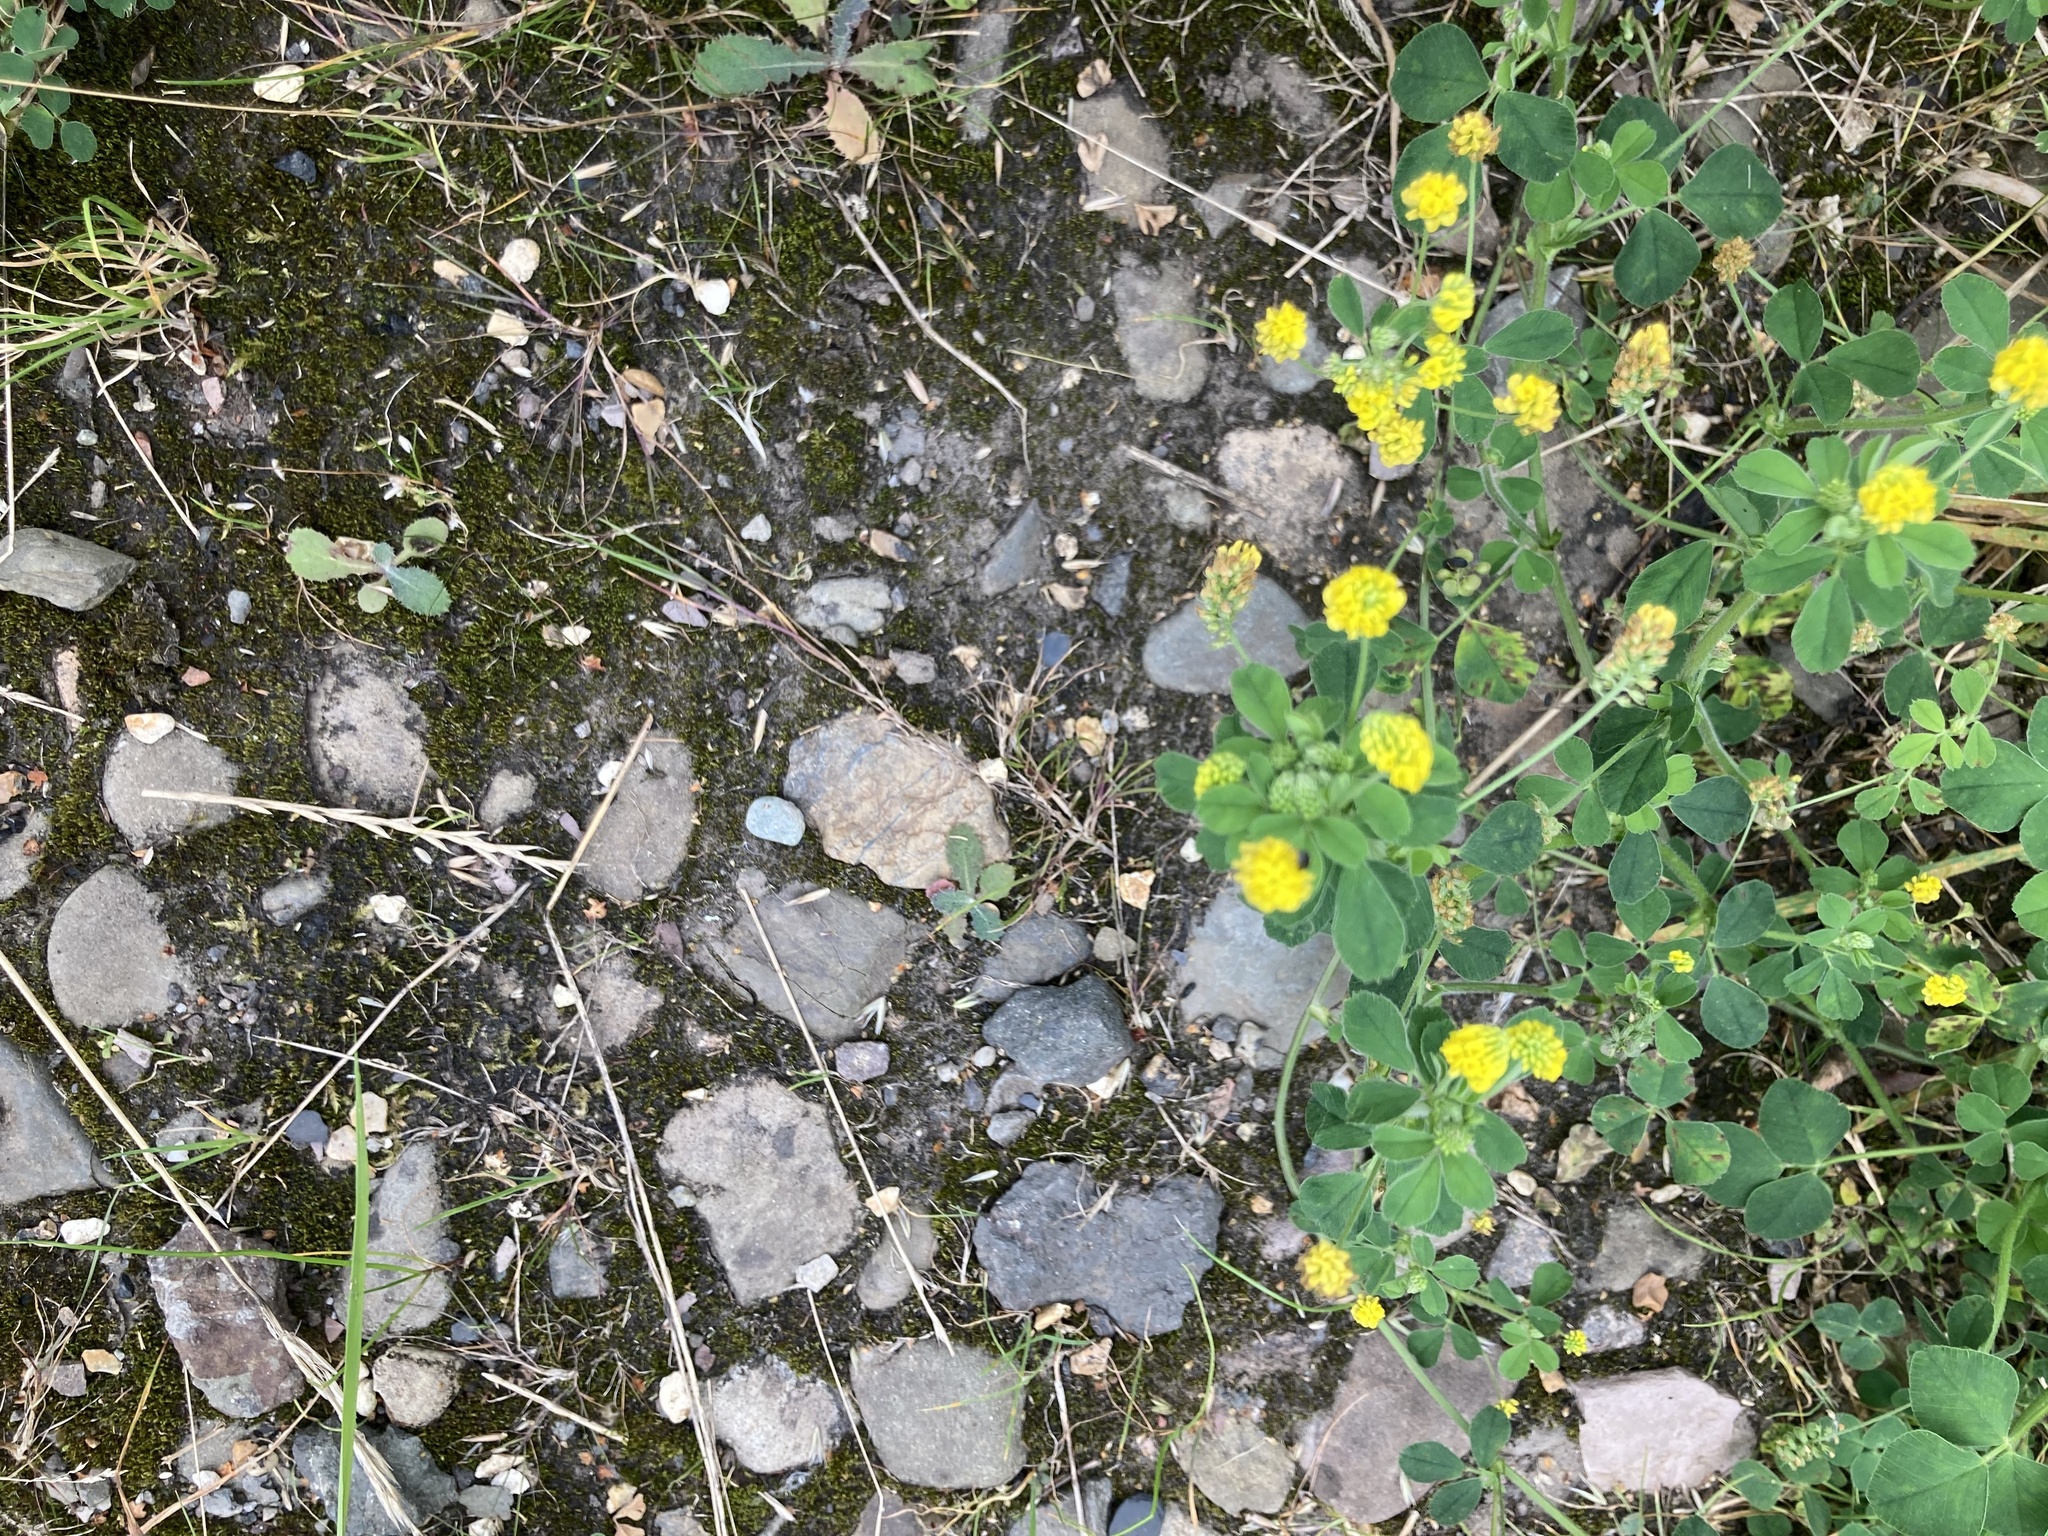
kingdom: Plantae
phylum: Tracheophyta
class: Magnoliopsida
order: Fabales
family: Fabaceae
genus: Medicago
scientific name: Medicago lupulina
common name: Black medick
